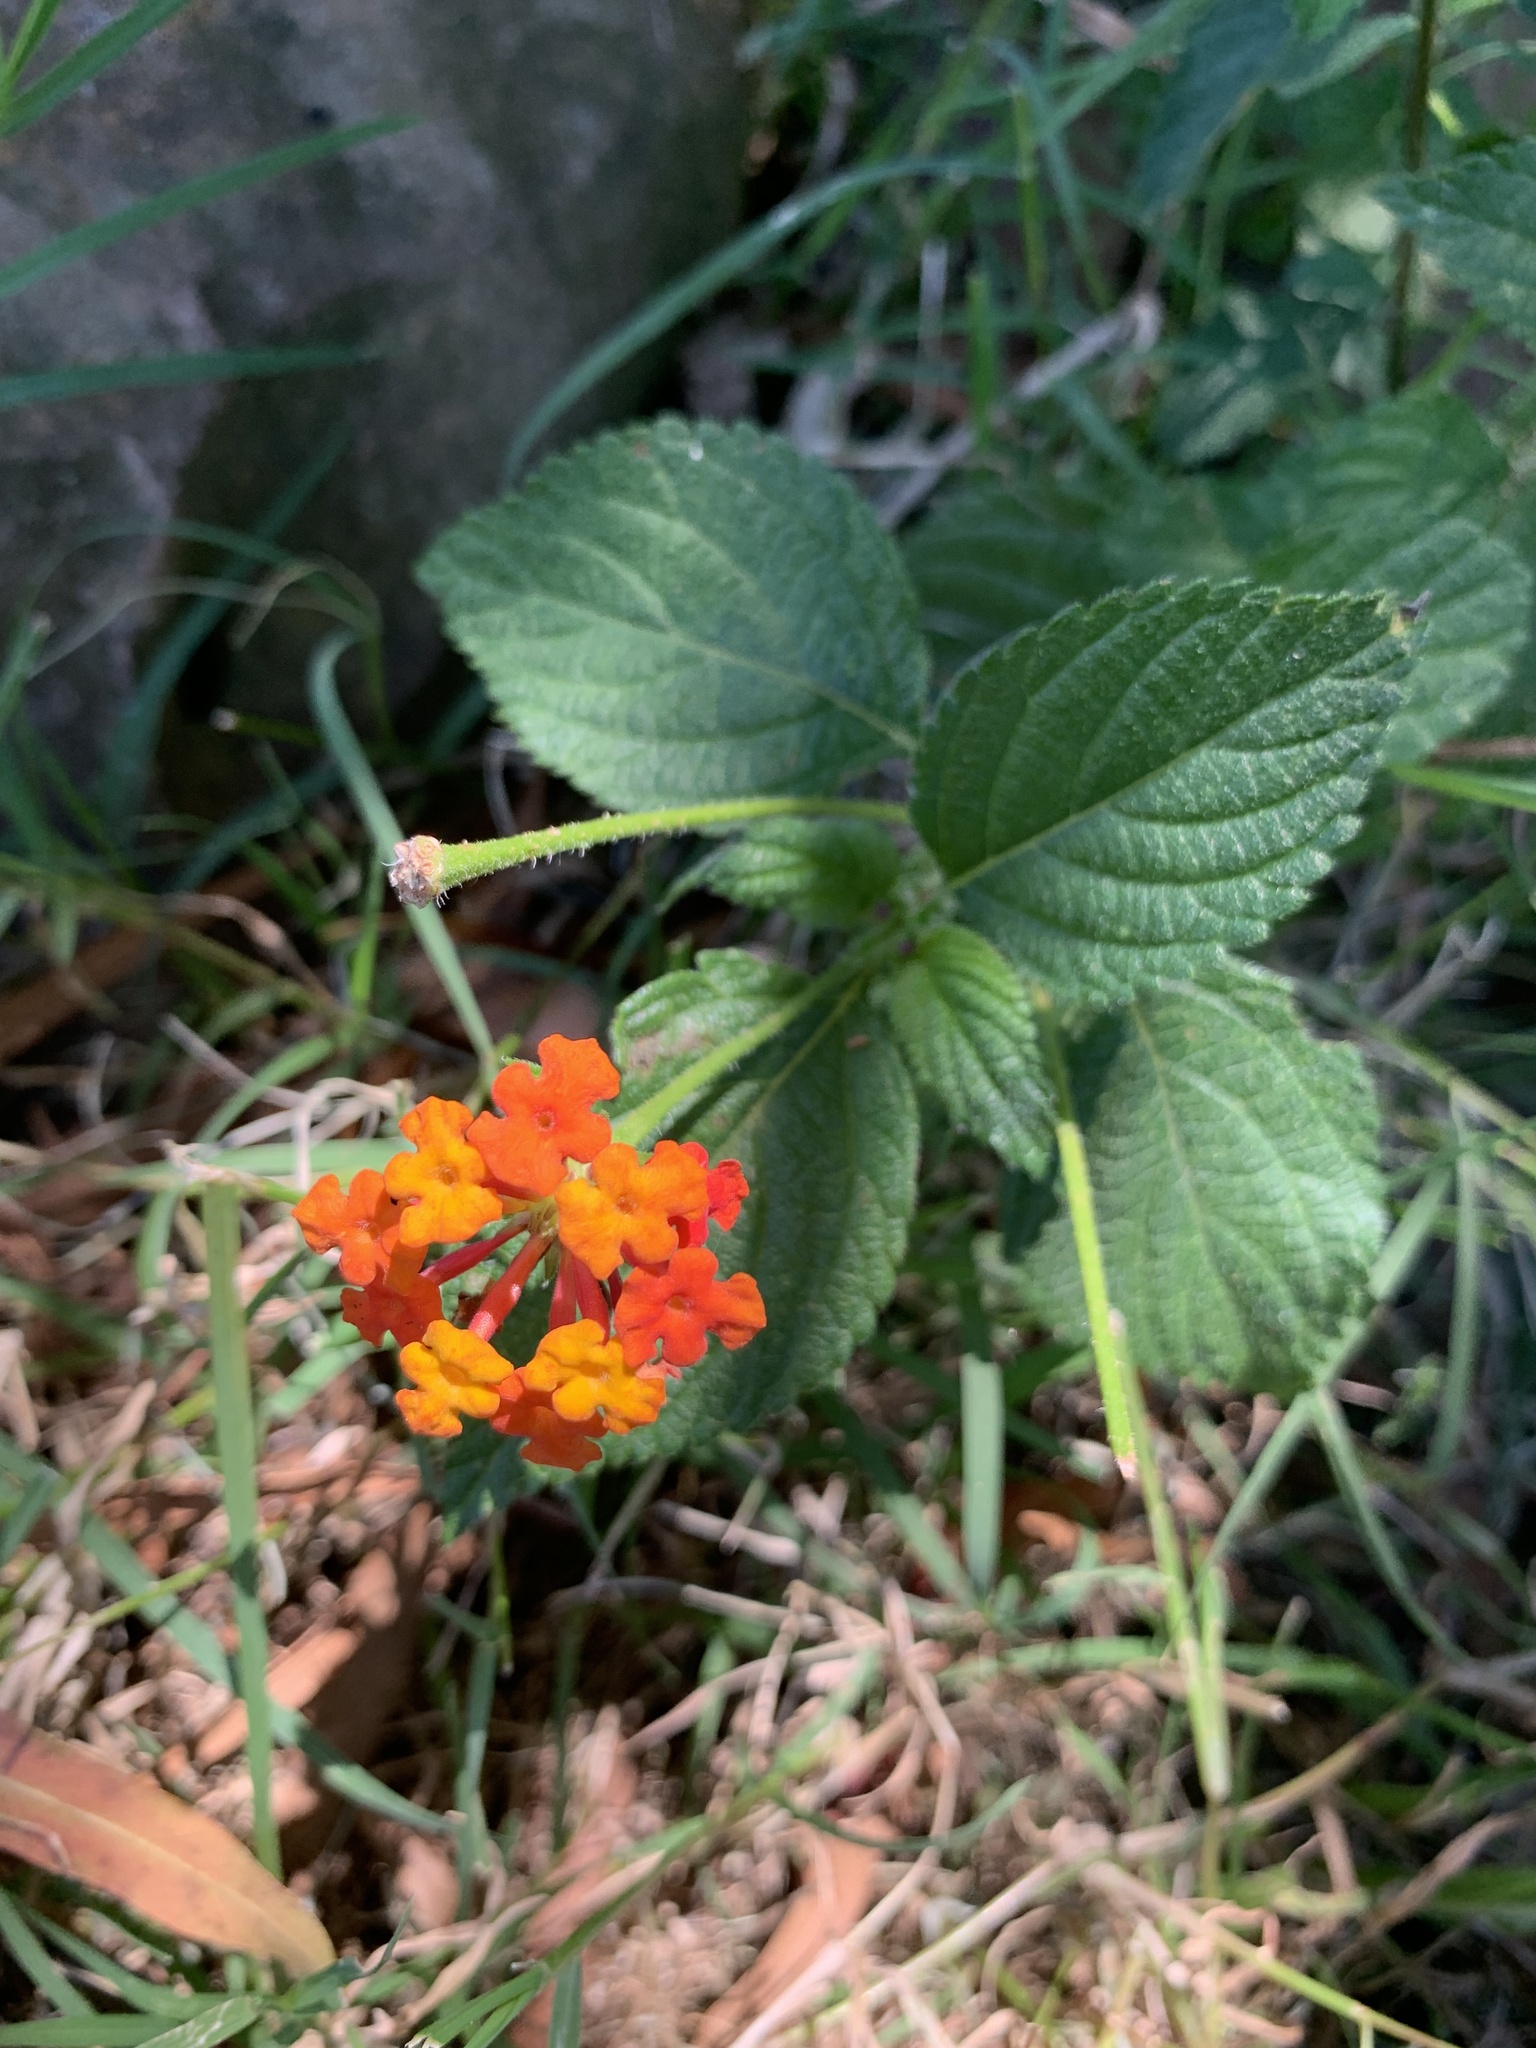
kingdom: Plantae
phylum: Tracheophyta
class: Magnoliopsida
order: Lamiales
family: Verbenaceae
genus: Lantana
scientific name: Lantana camara
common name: Lantana
